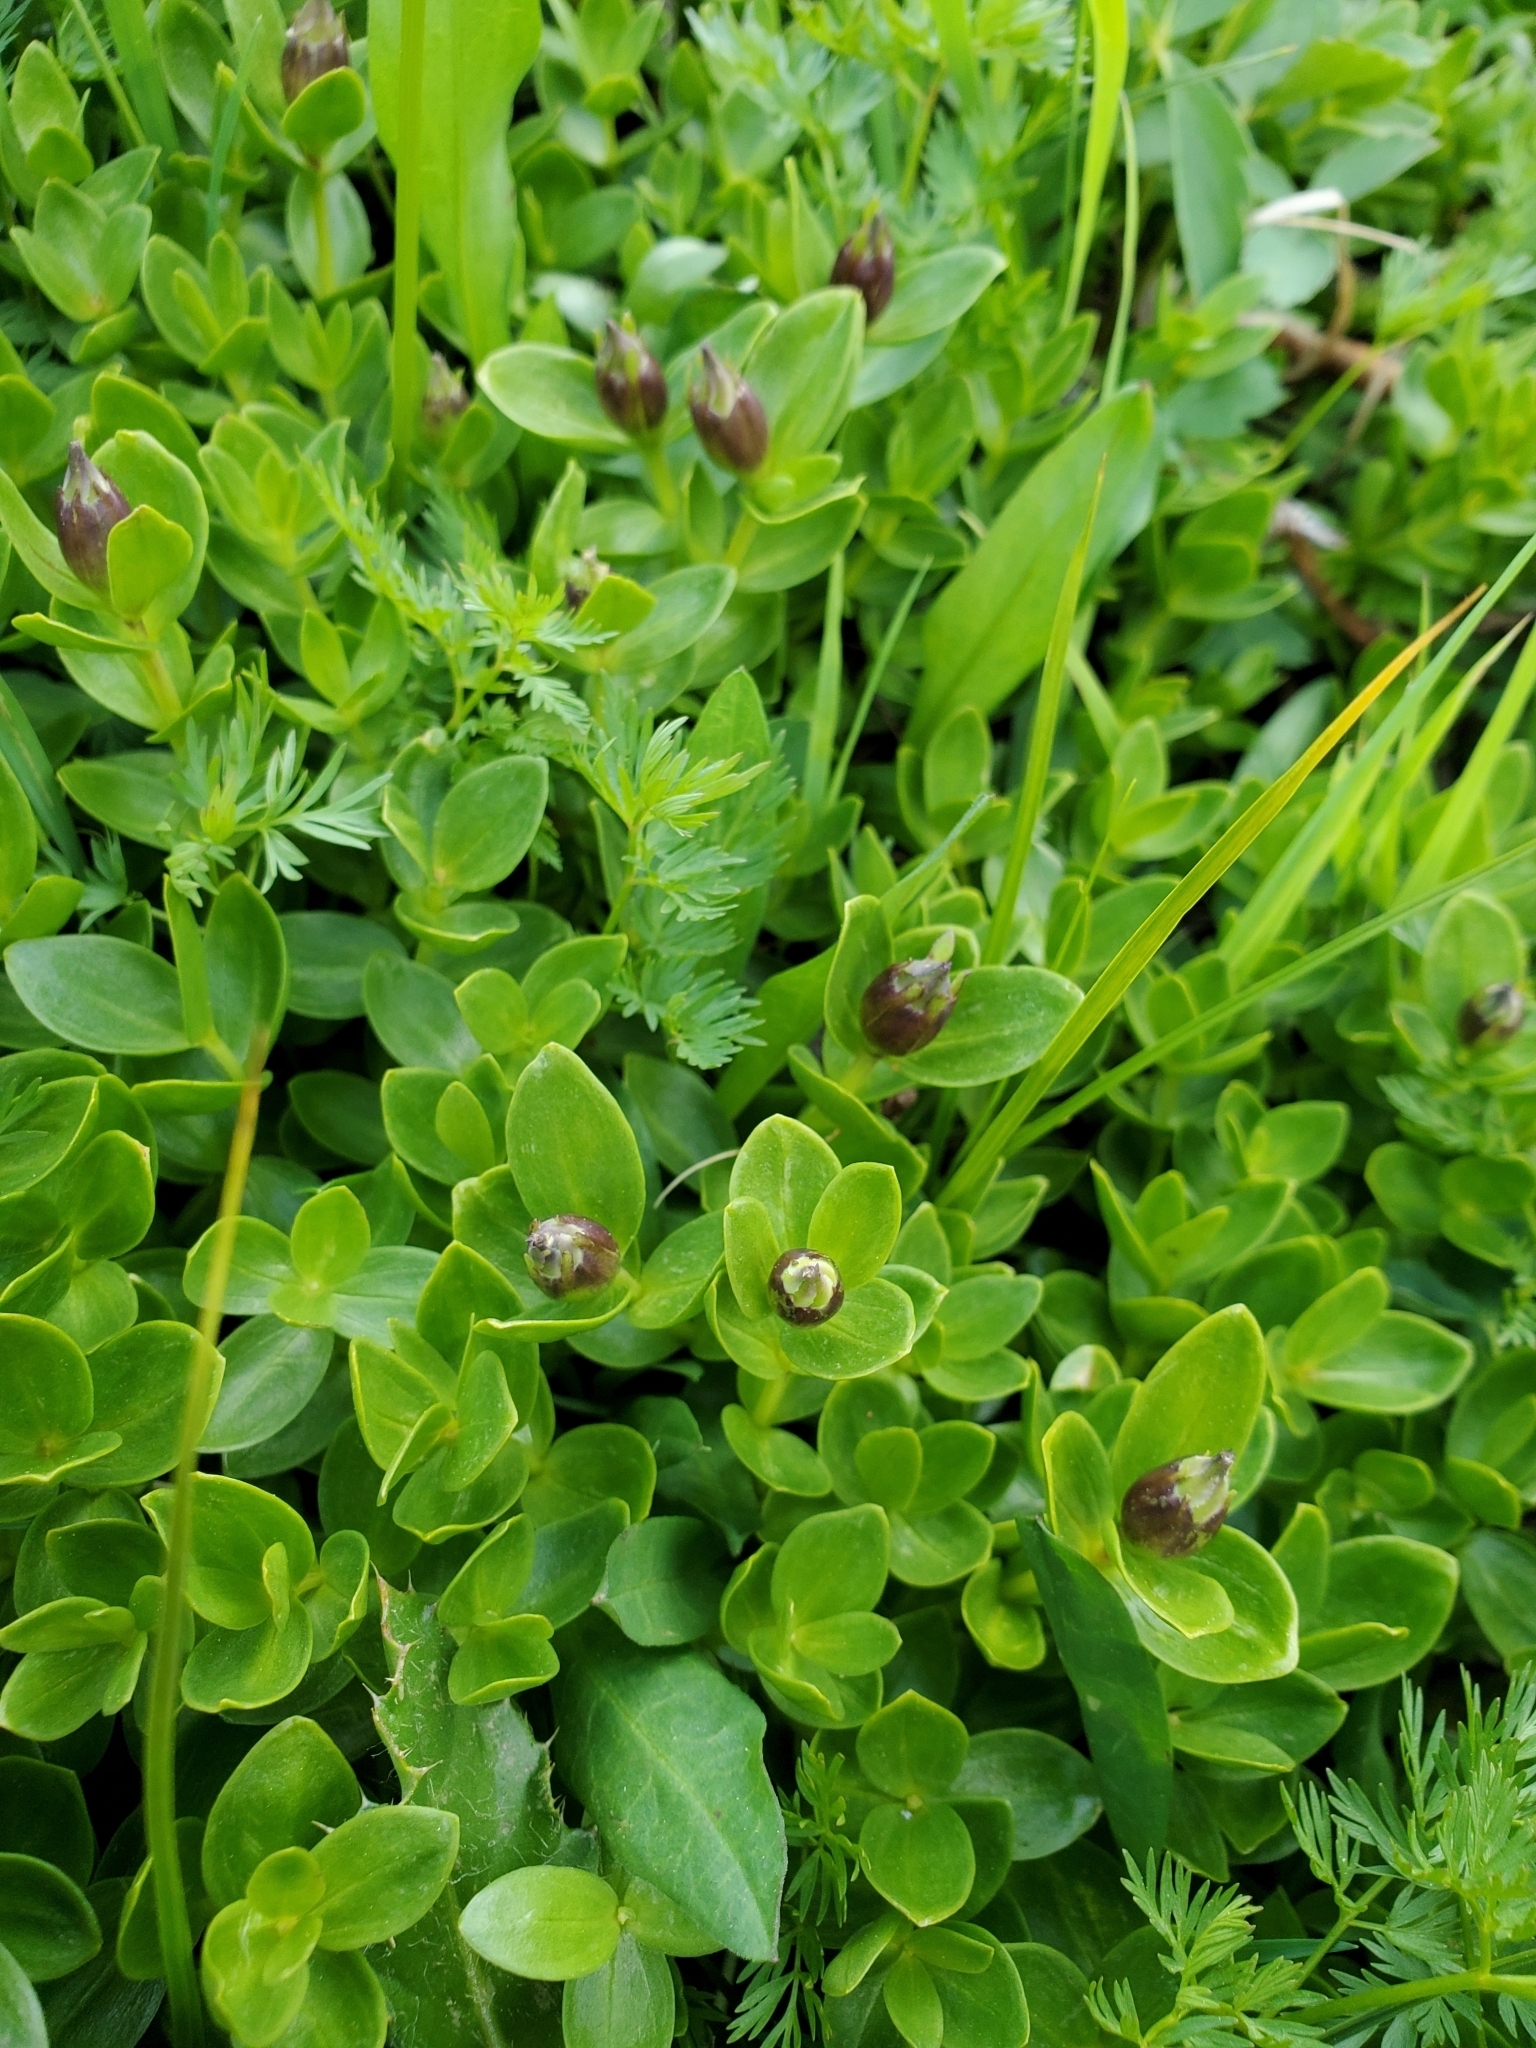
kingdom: Plantae
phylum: Tracheophyta
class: Magnoliopsida
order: Gentianales
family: Gentianaceae
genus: Gentiana
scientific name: Gentiana calycosa
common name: Rainier pleated gentian
